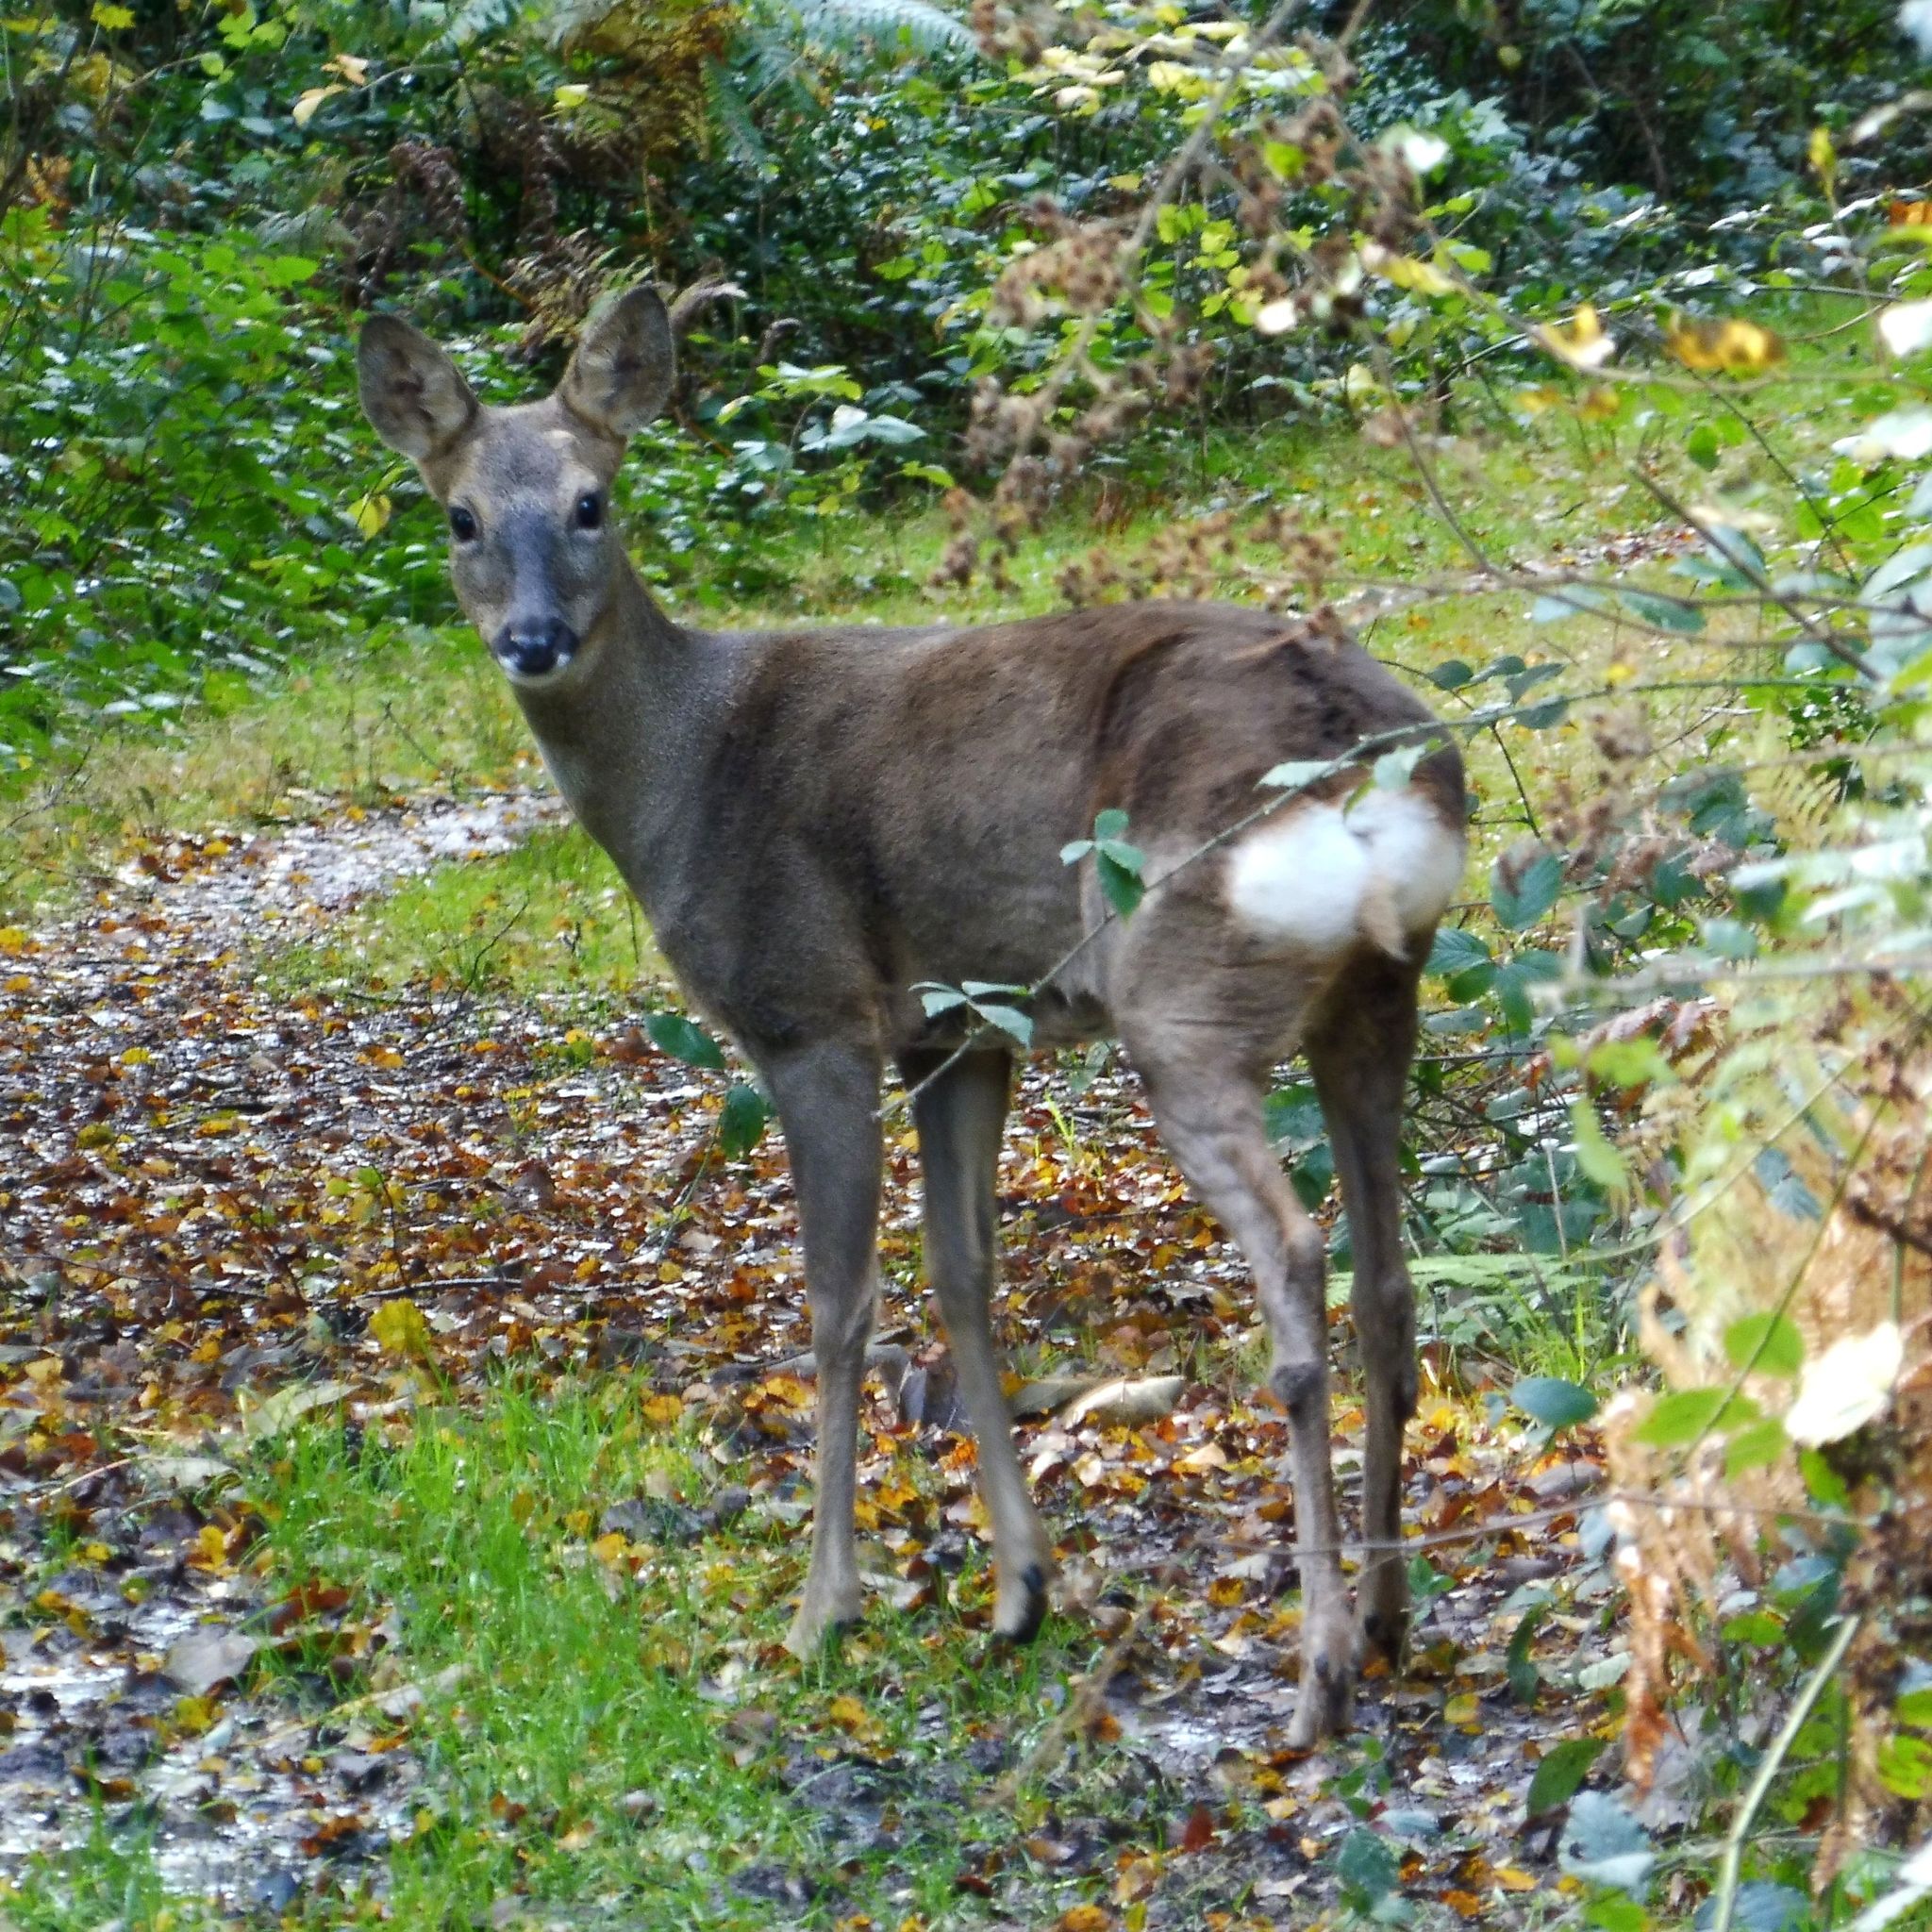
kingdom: Animalia
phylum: Chordata
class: Mammalia
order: Artiodactyla
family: Cervidae
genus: Capreolus
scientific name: Capreolus capreolus
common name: Western roe deer
